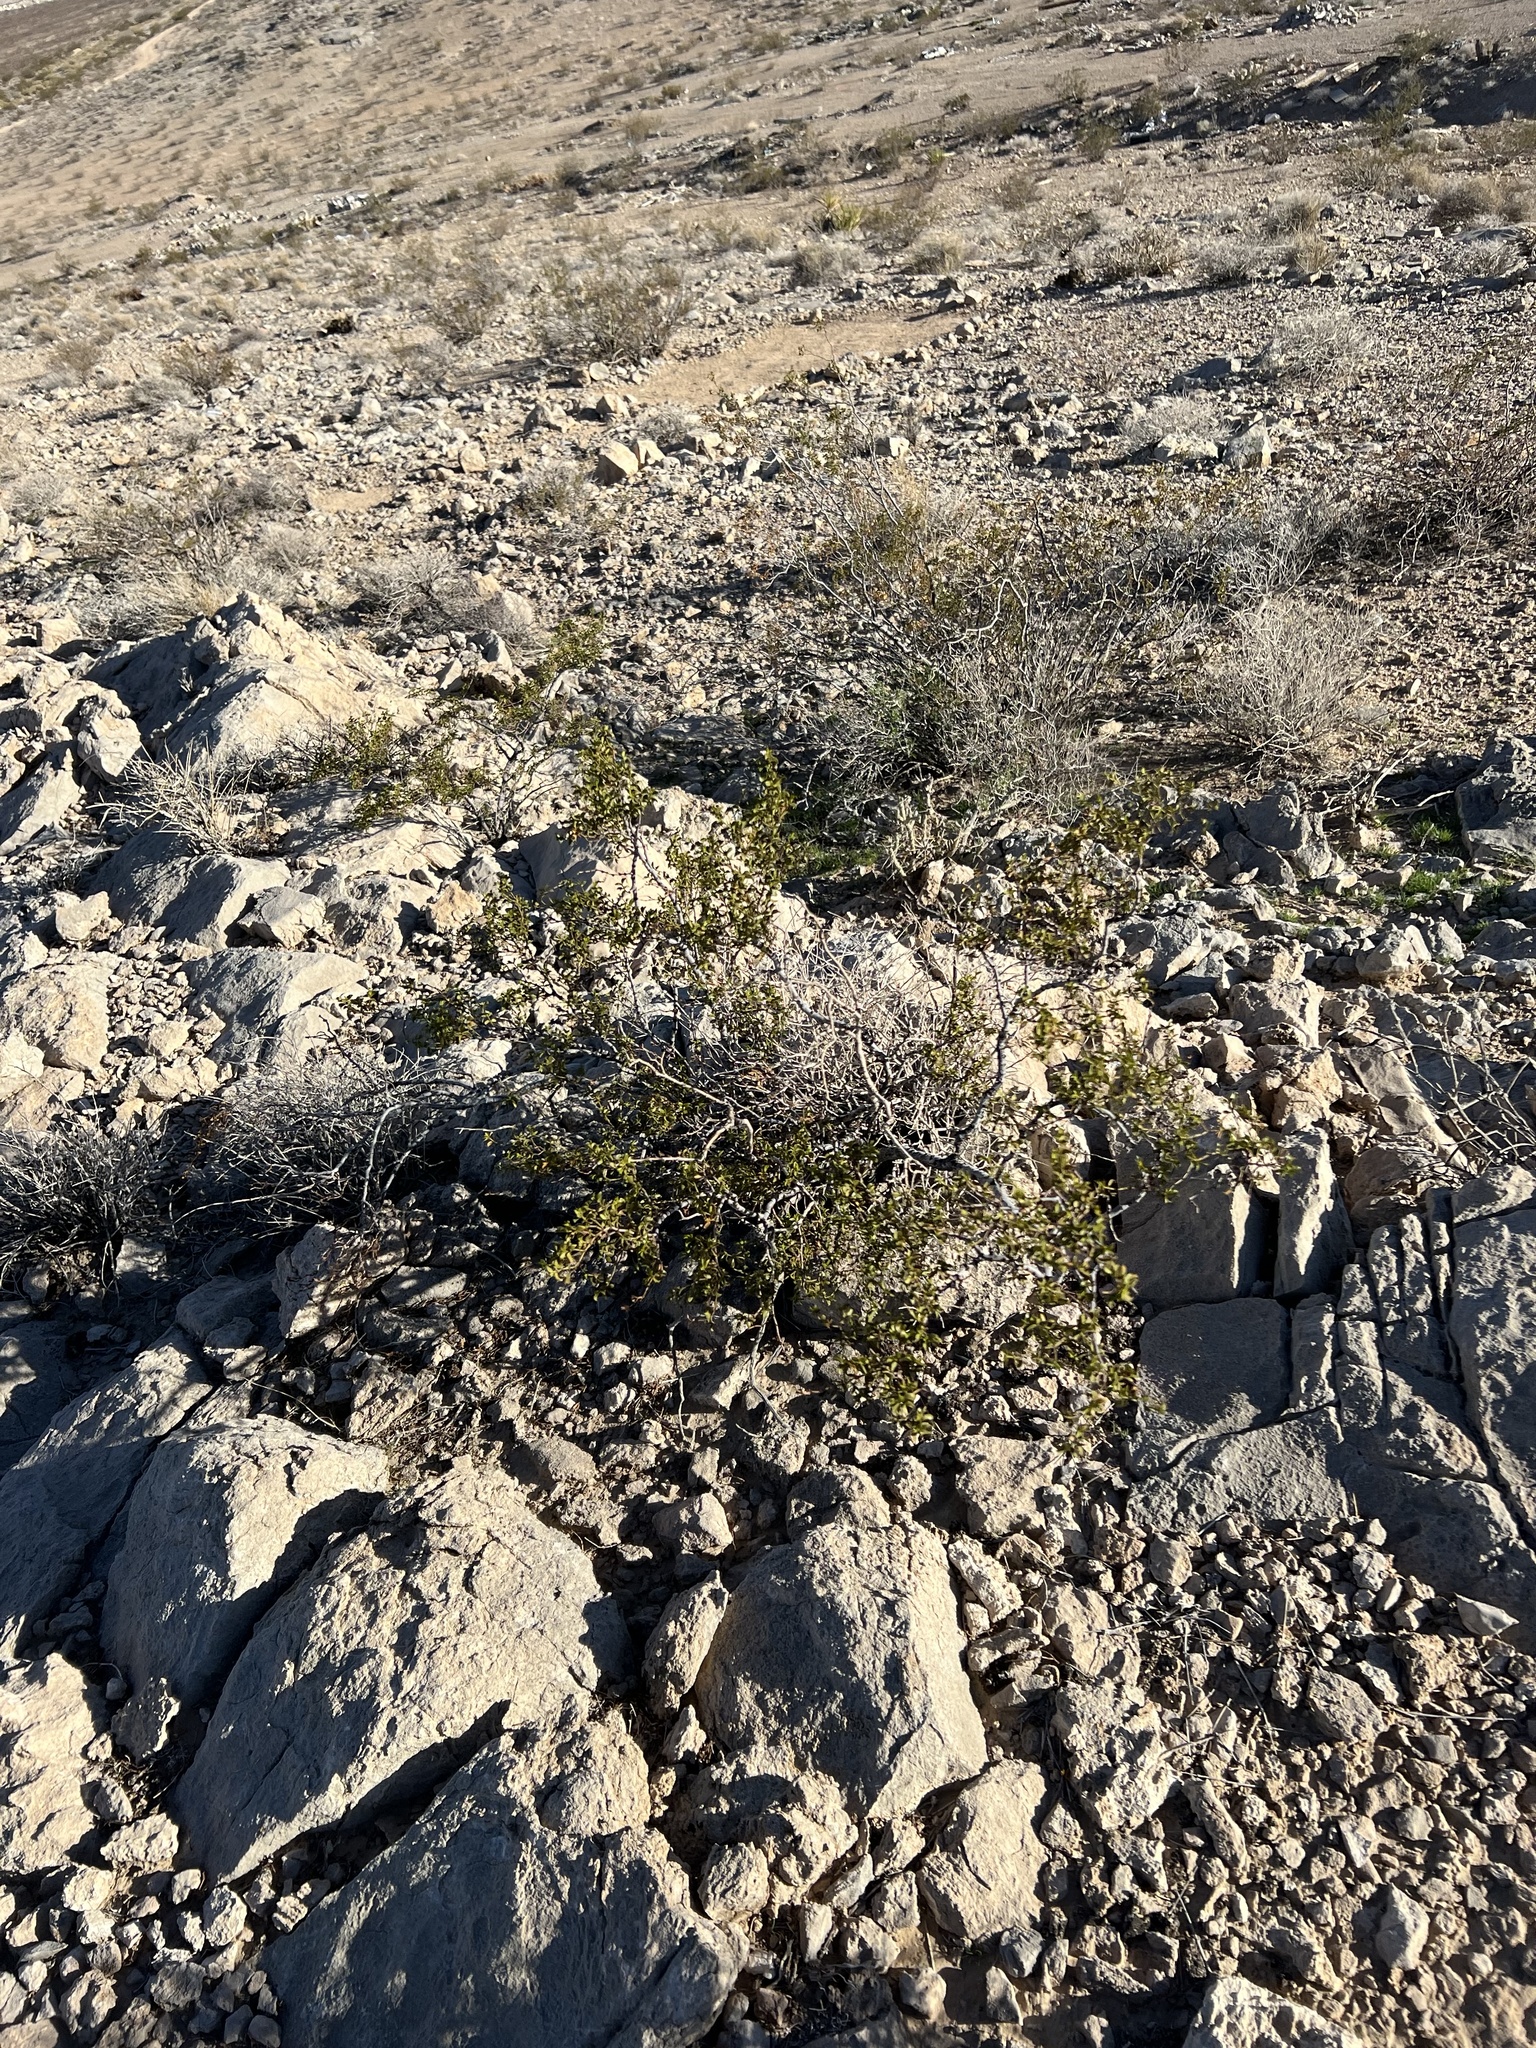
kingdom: Plantae
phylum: Tracheophyta
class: Magnoliopsida
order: Zygophyllales
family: Zygophyllaceae
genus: Larrea
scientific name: Larrea tridentata
